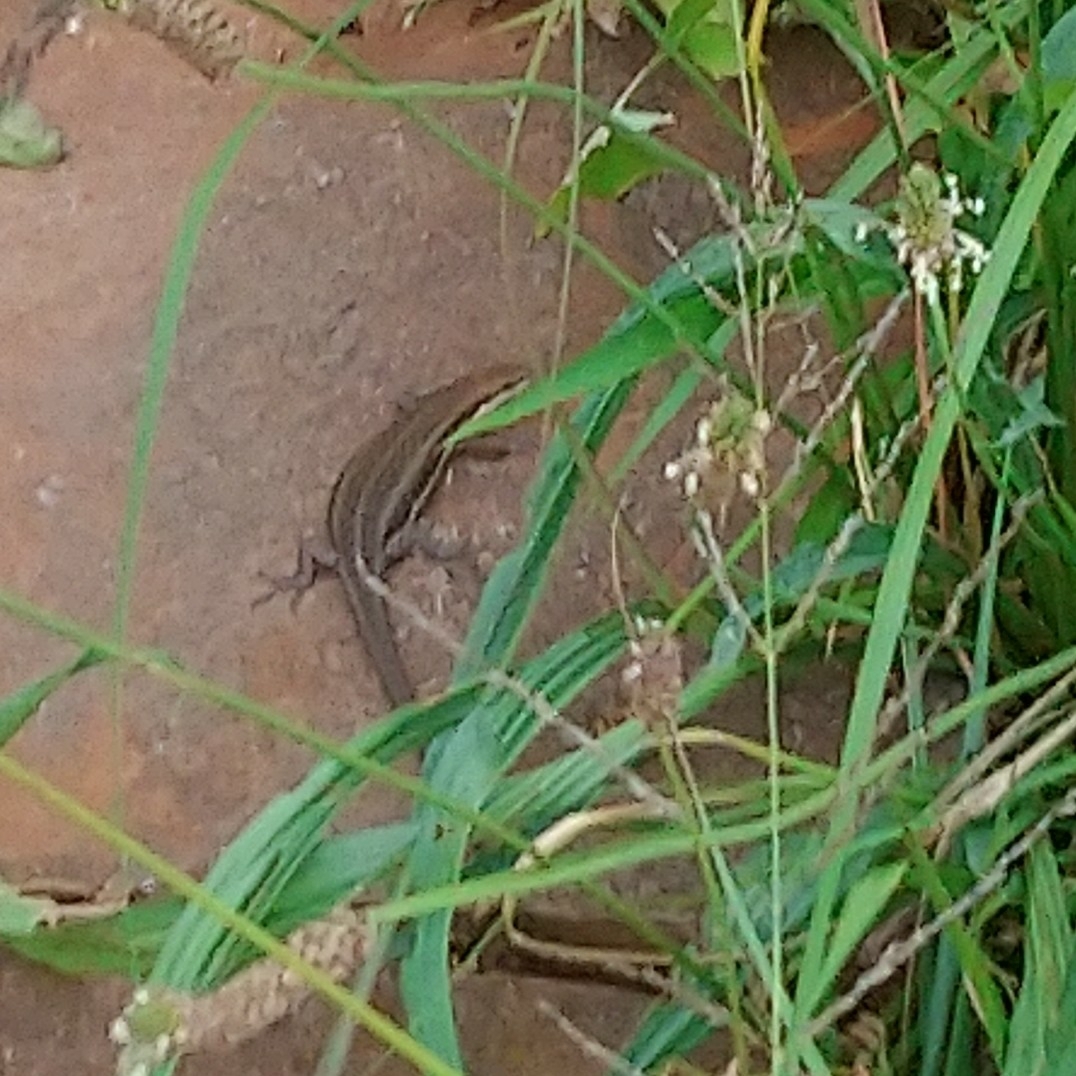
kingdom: Animalia
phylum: Chordata
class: Squamata
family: Scincidae
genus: Trachylepis
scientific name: Trachylepis varia
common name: Eastern variable skink
